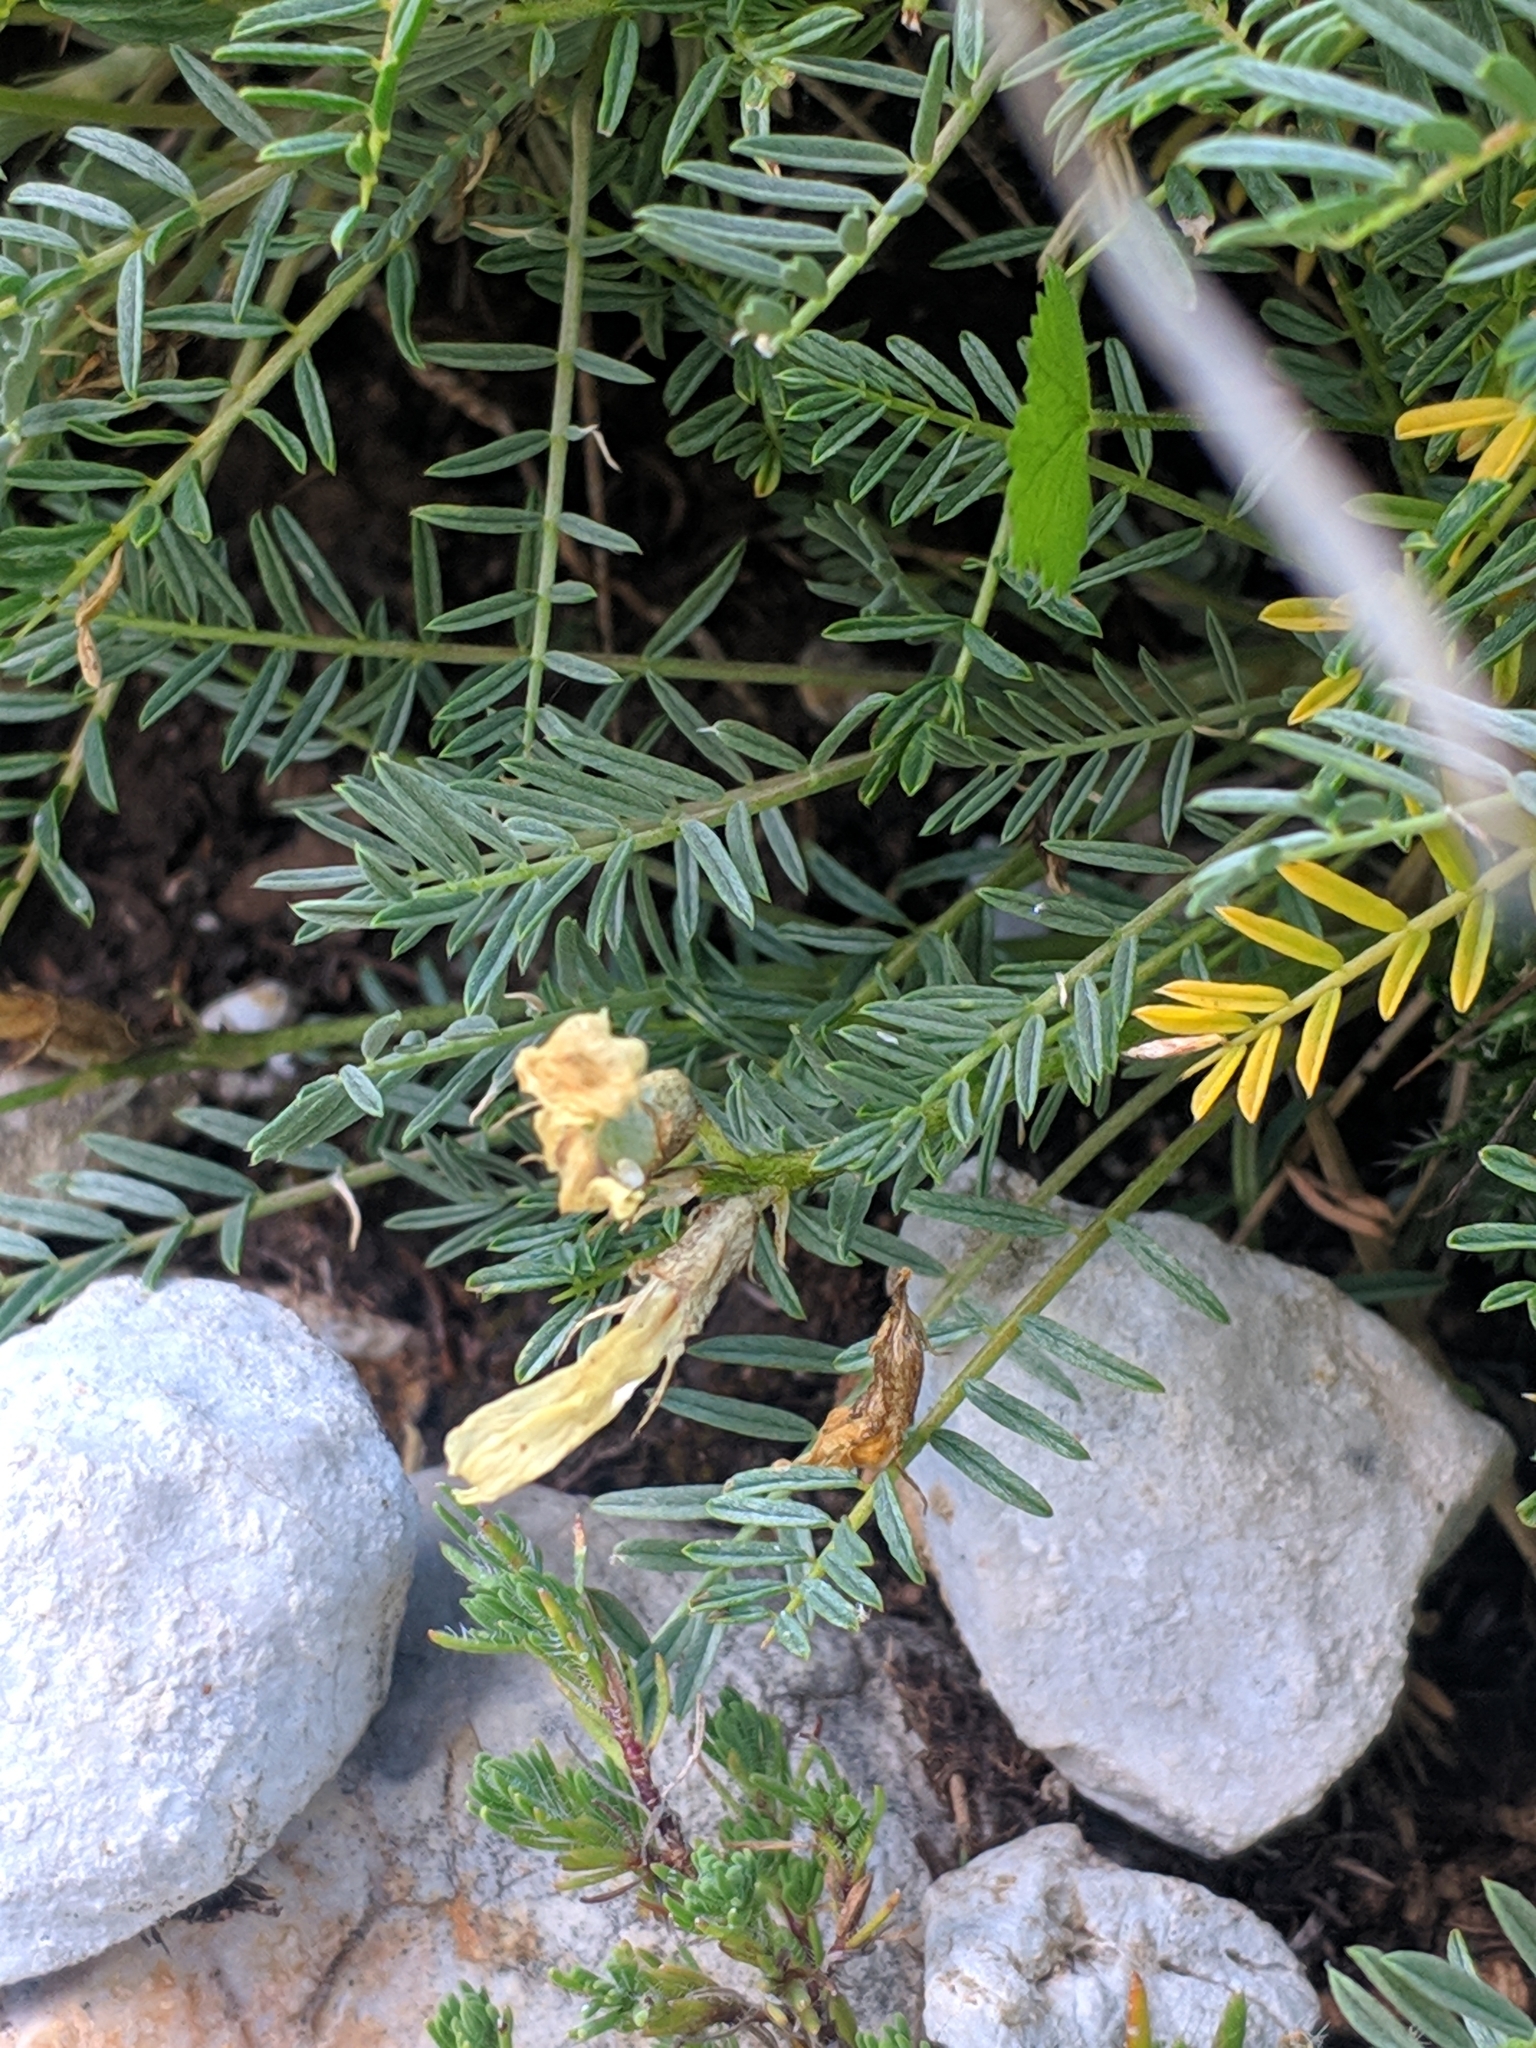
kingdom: Plantae
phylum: Tracheophyta
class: Magnoliopsida
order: Fabales
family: Fabaceae
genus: Astragalus
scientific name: Astragalus angustifolius
